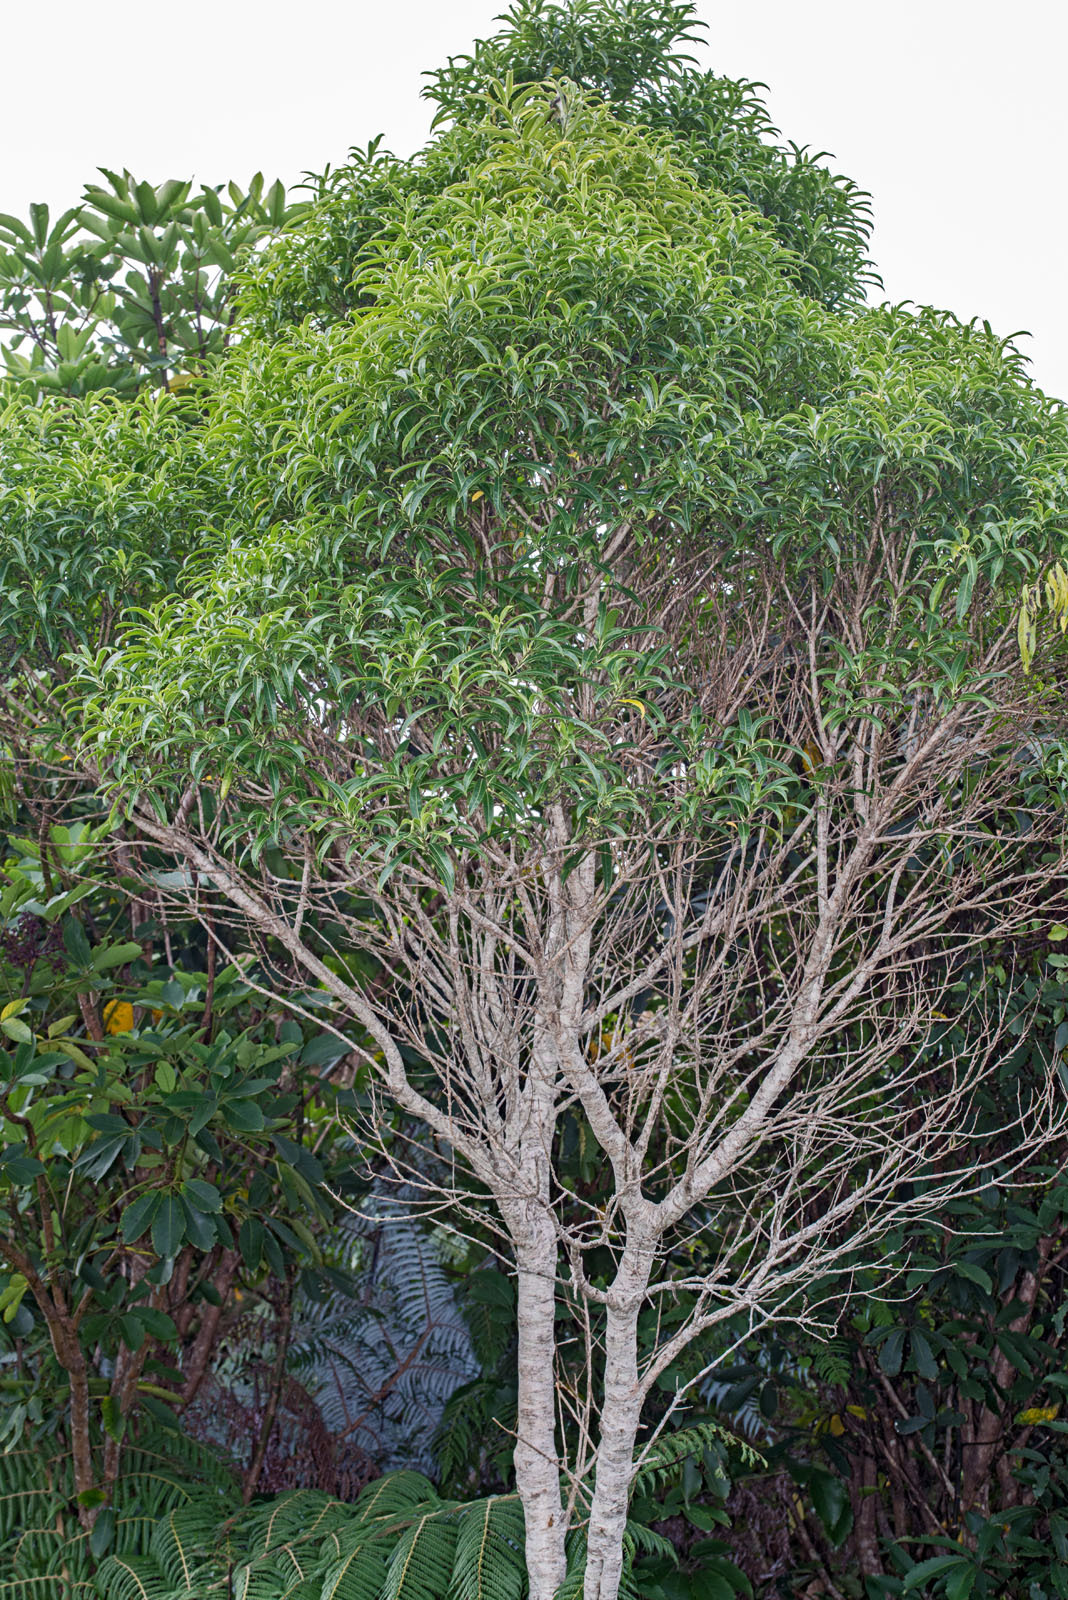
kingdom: Plantae
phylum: Tracheophyta
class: Magnoliopsida
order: Malpighiales
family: Violaceae
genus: Melicytus
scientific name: Melicytus lanceolatus
